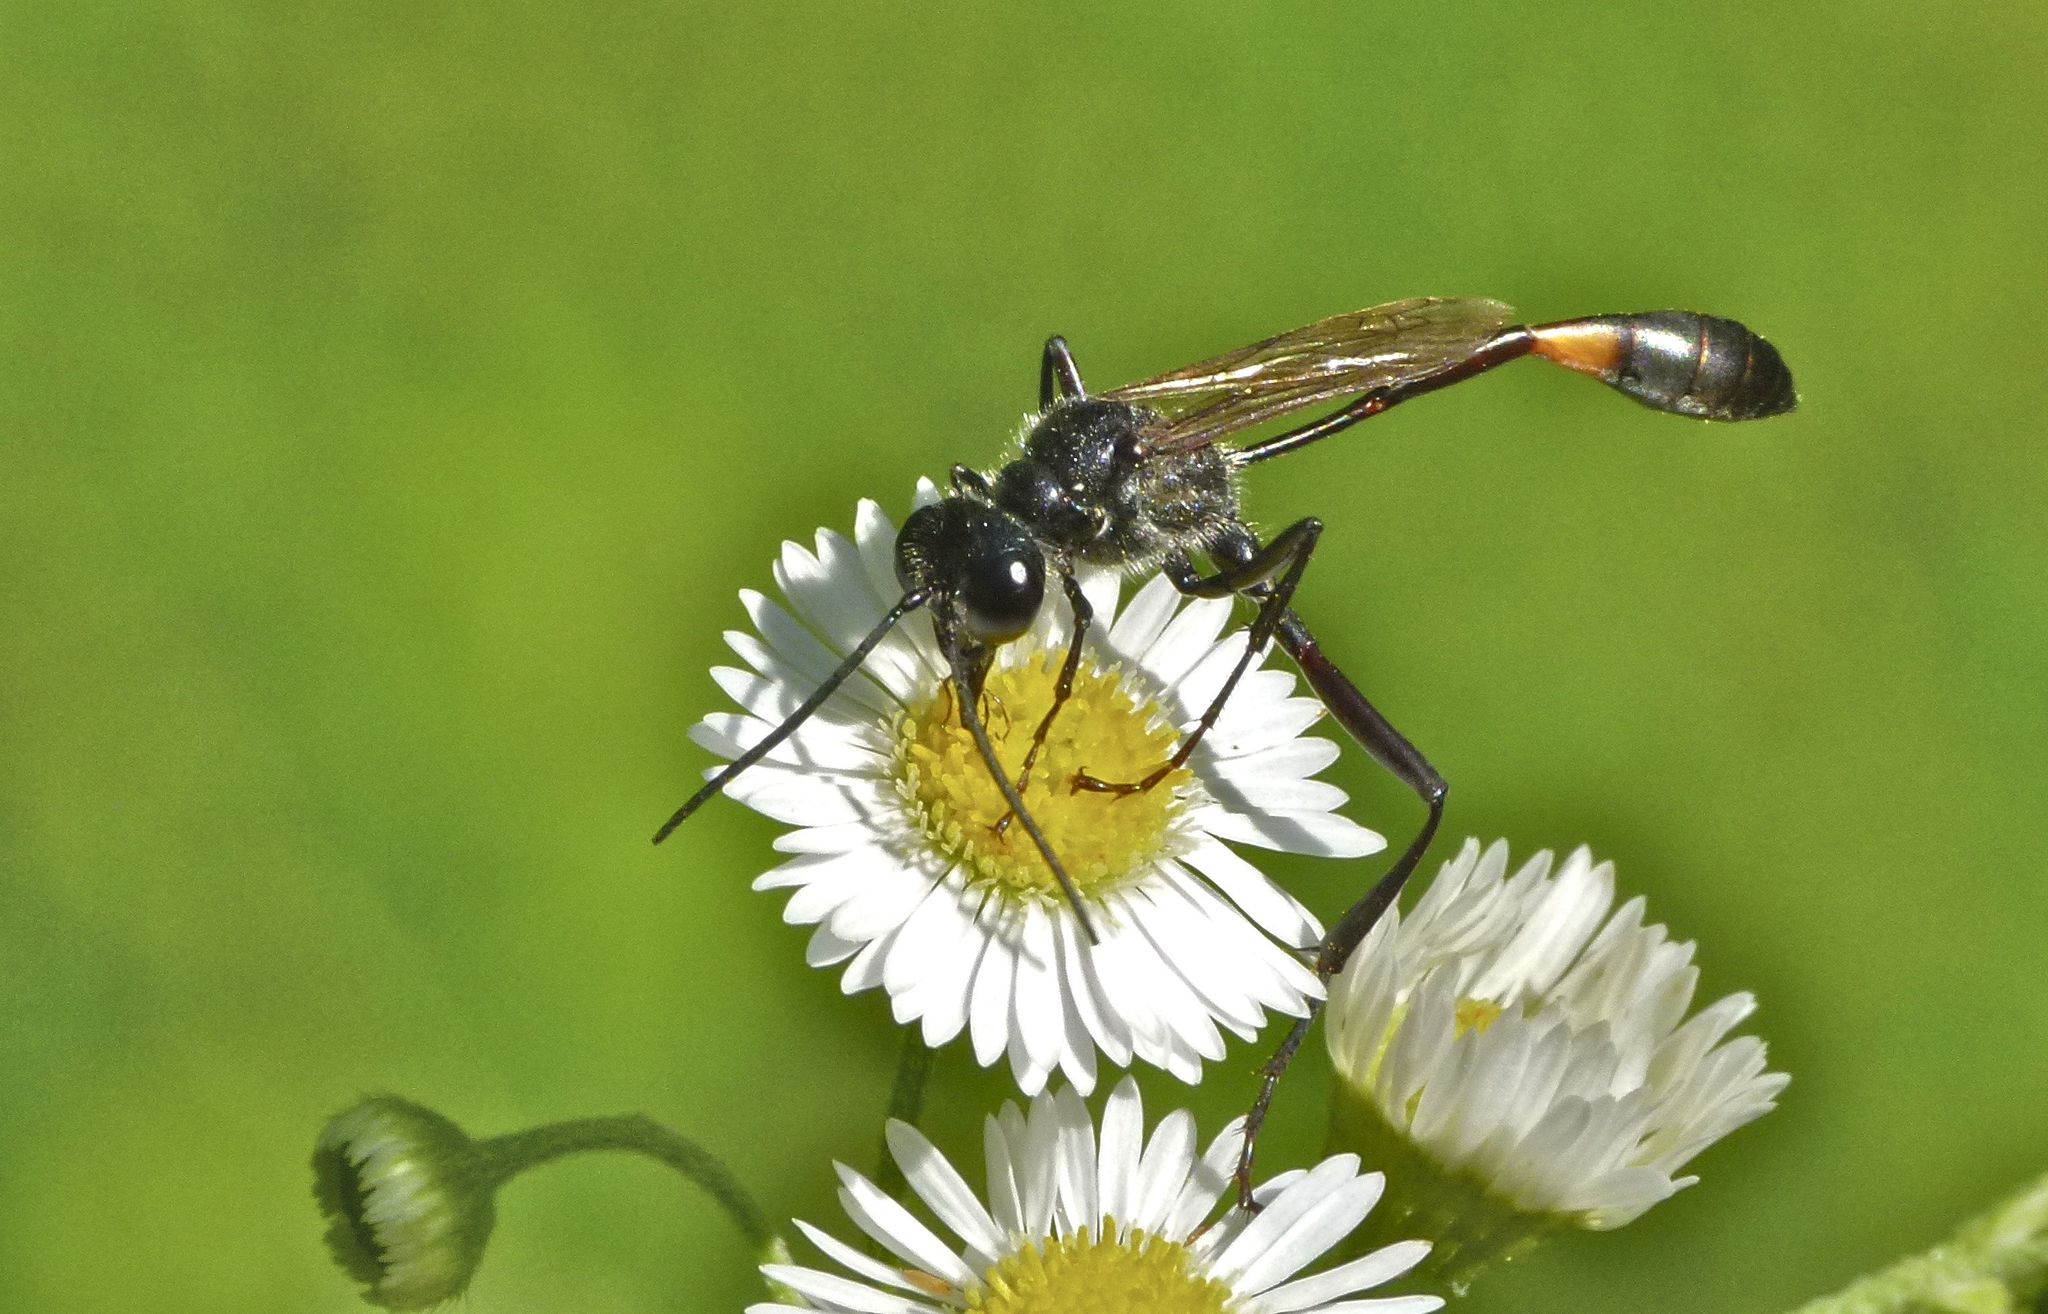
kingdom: Animalia
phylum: Arthropoda
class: Insecta
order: Hymenoptera
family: Sphecidae
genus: Ammophila
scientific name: Ammophila procera
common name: Common thread-waisted wasp
